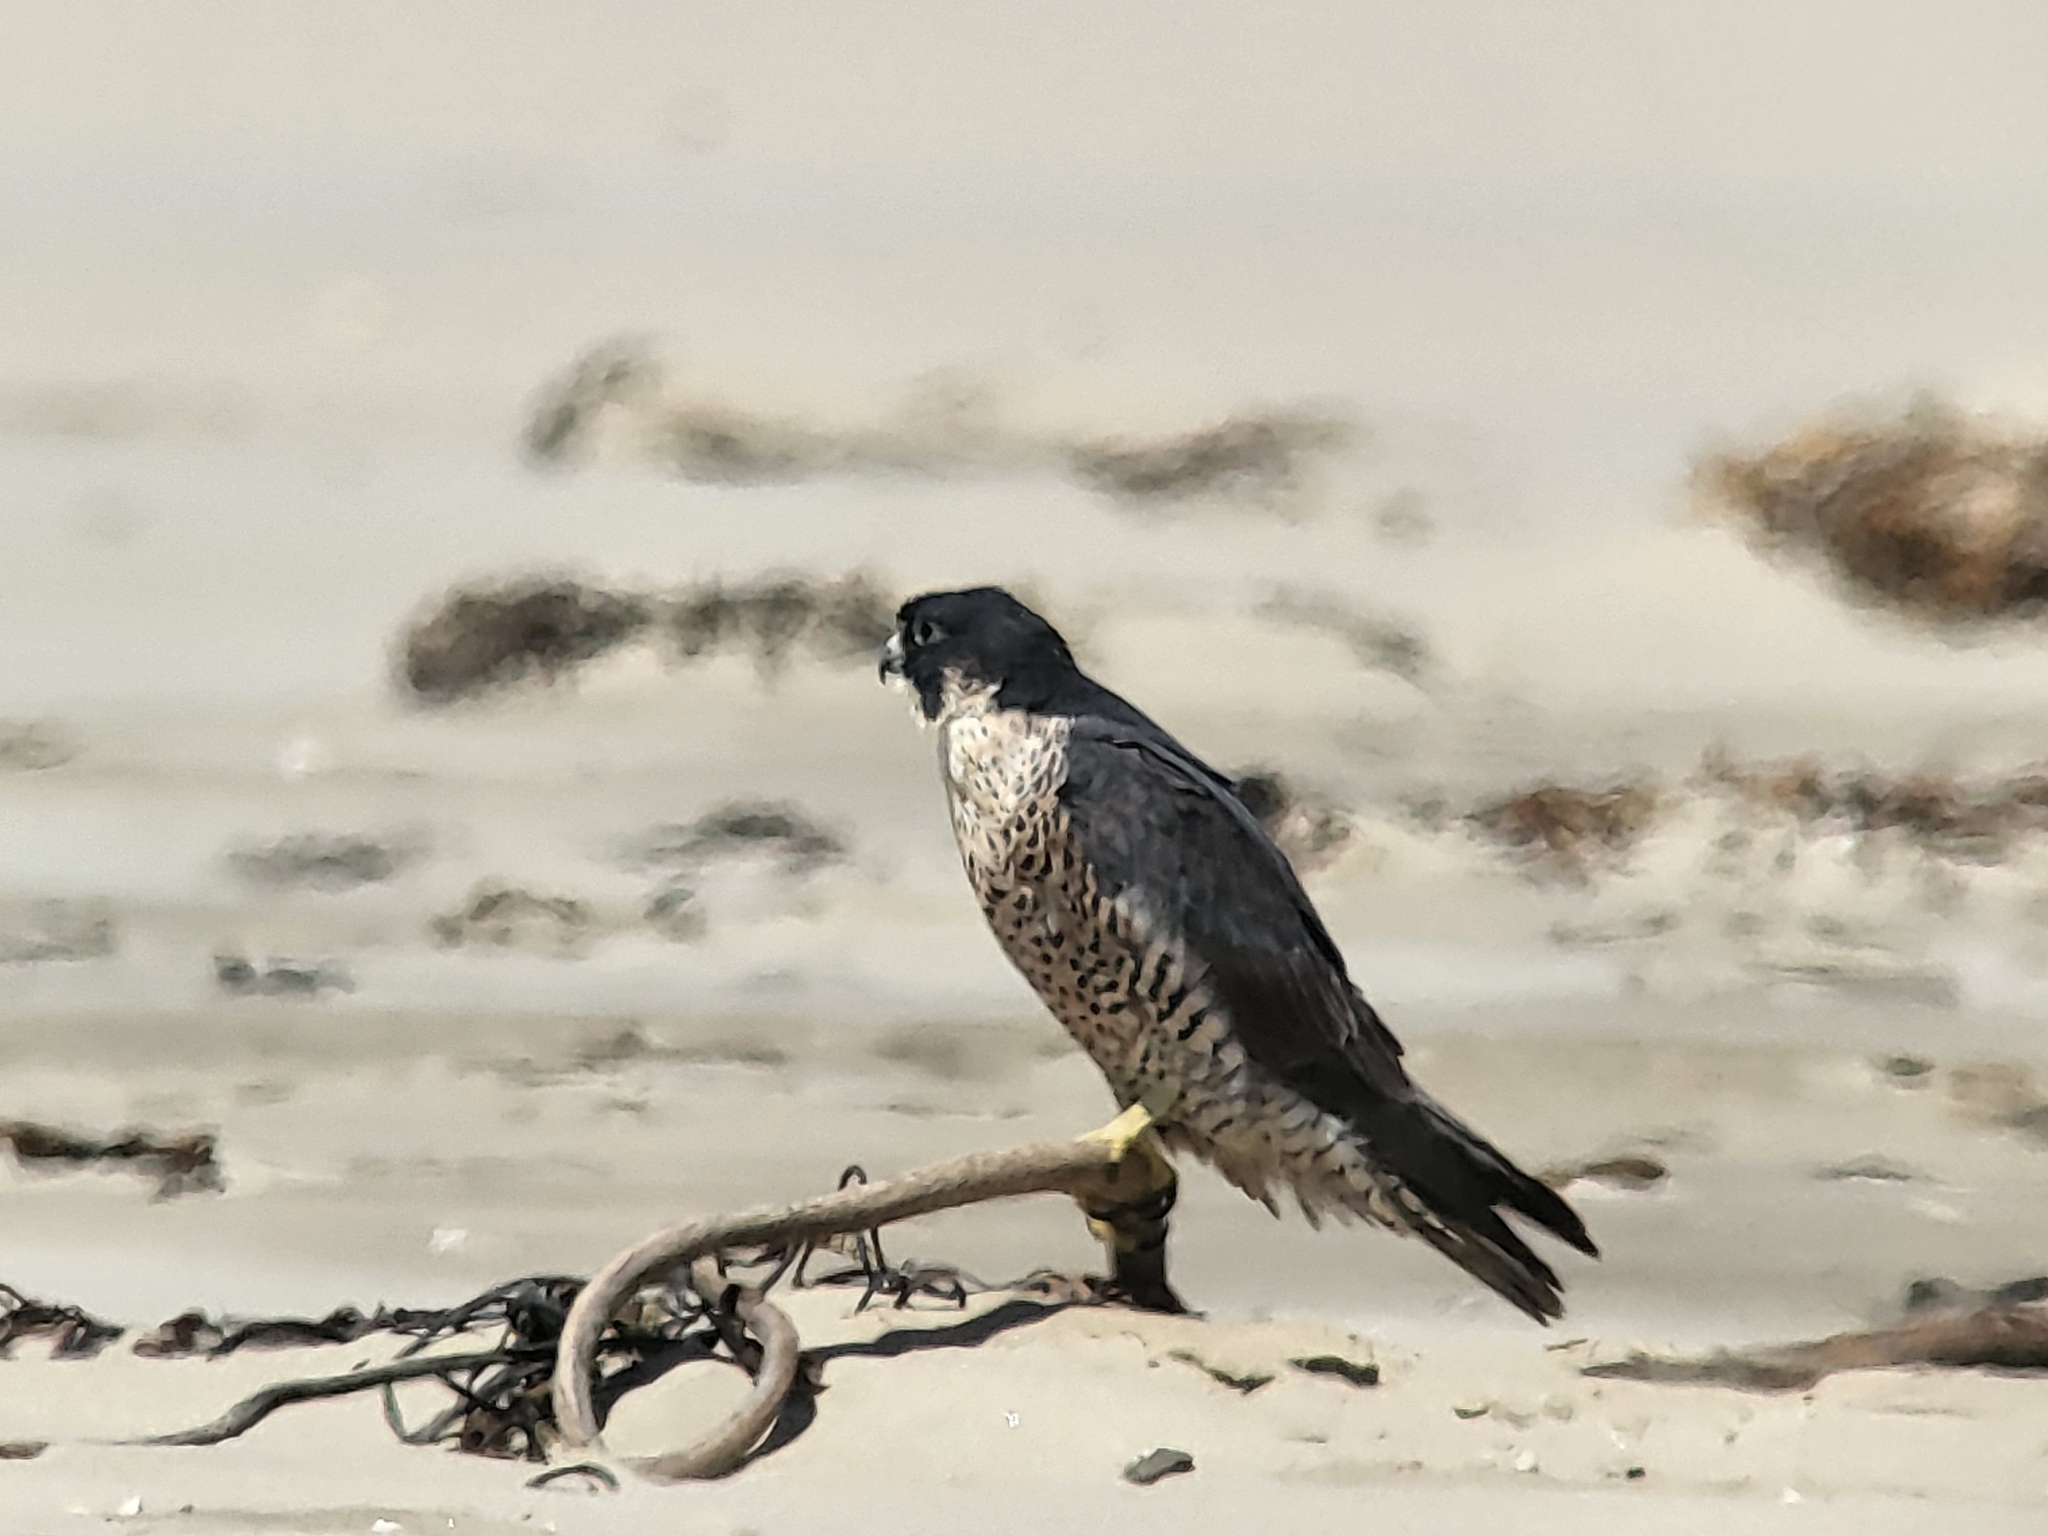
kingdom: Animalia
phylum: Chordata
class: Aves
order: Falconiformes
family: Falconidae
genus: Falco
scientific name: Falco peregrinus
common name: Peregrine falcon
